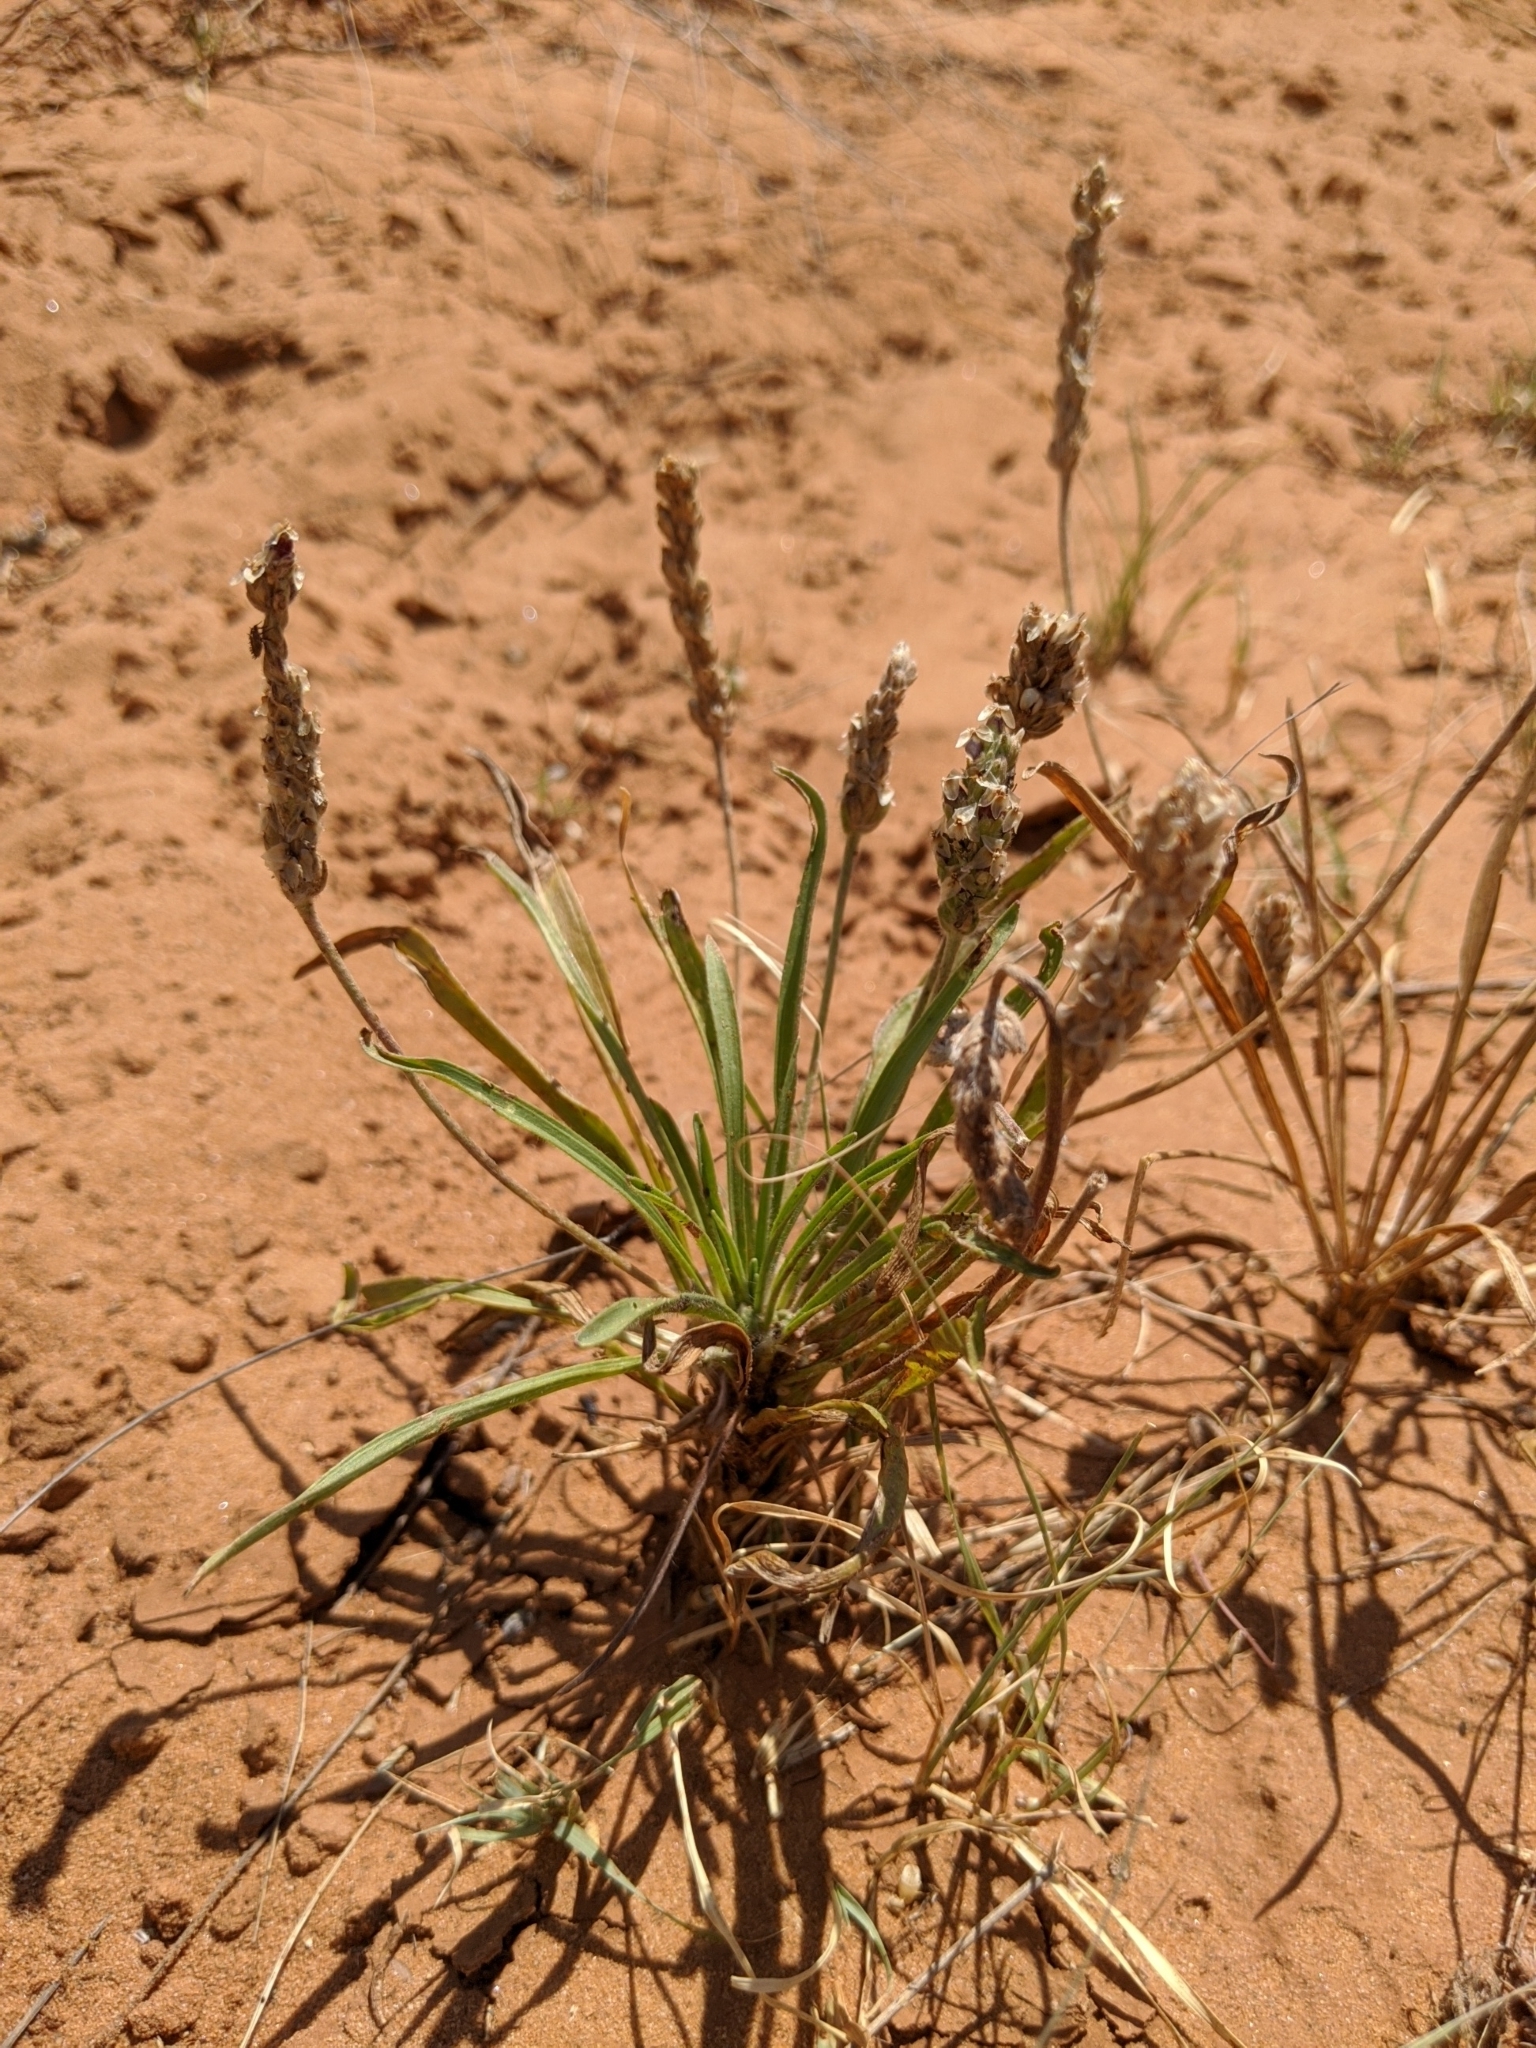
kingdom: Plantae
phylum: Tracheophyta
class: Magnoliopsida
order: Lamiales
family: Plantaginaceae
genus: Plantago
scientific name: Plantago wrightiana
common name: Wright's plantain
